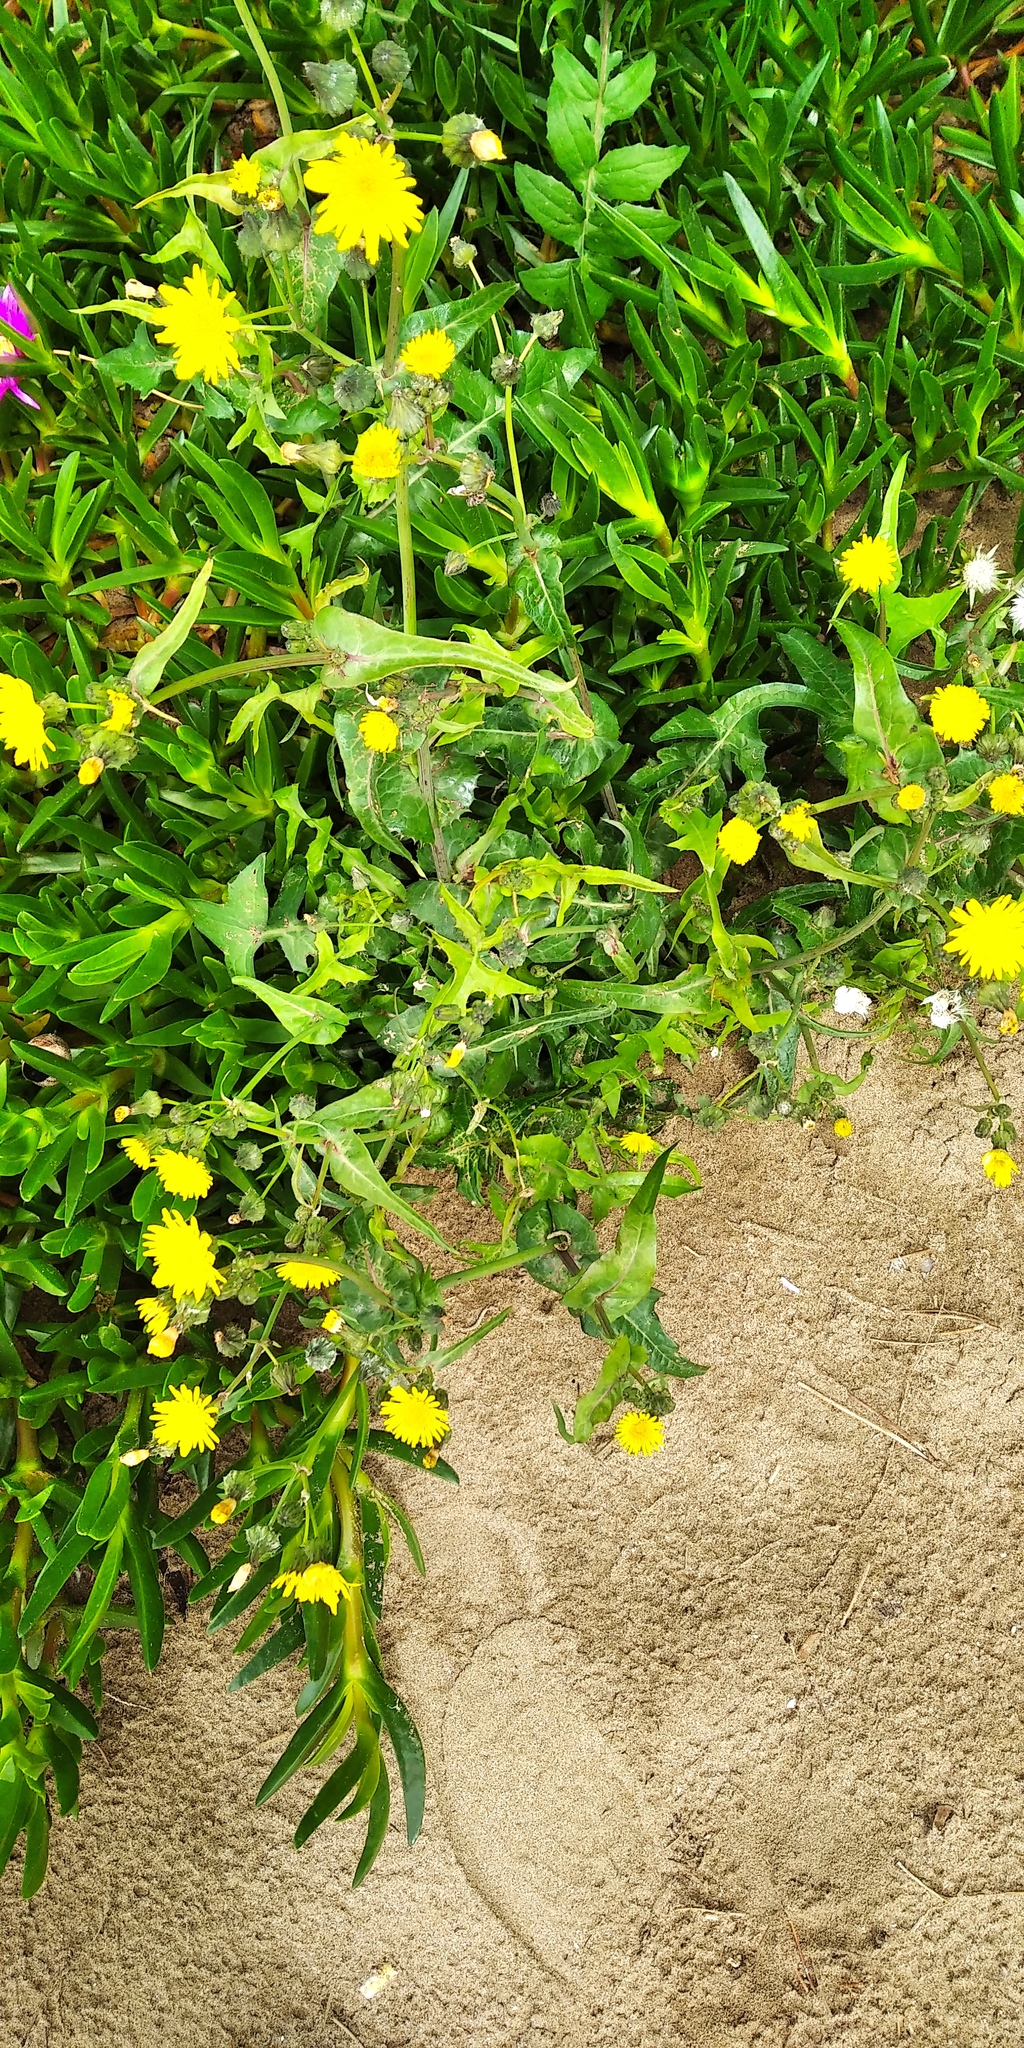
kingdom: Plantae
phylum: Tracheophyta
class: Magnoliopsida
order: Asterales
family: Asteraceae
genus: Sonchus
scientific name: Sonchus oleraceus
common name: Common sowthistle
